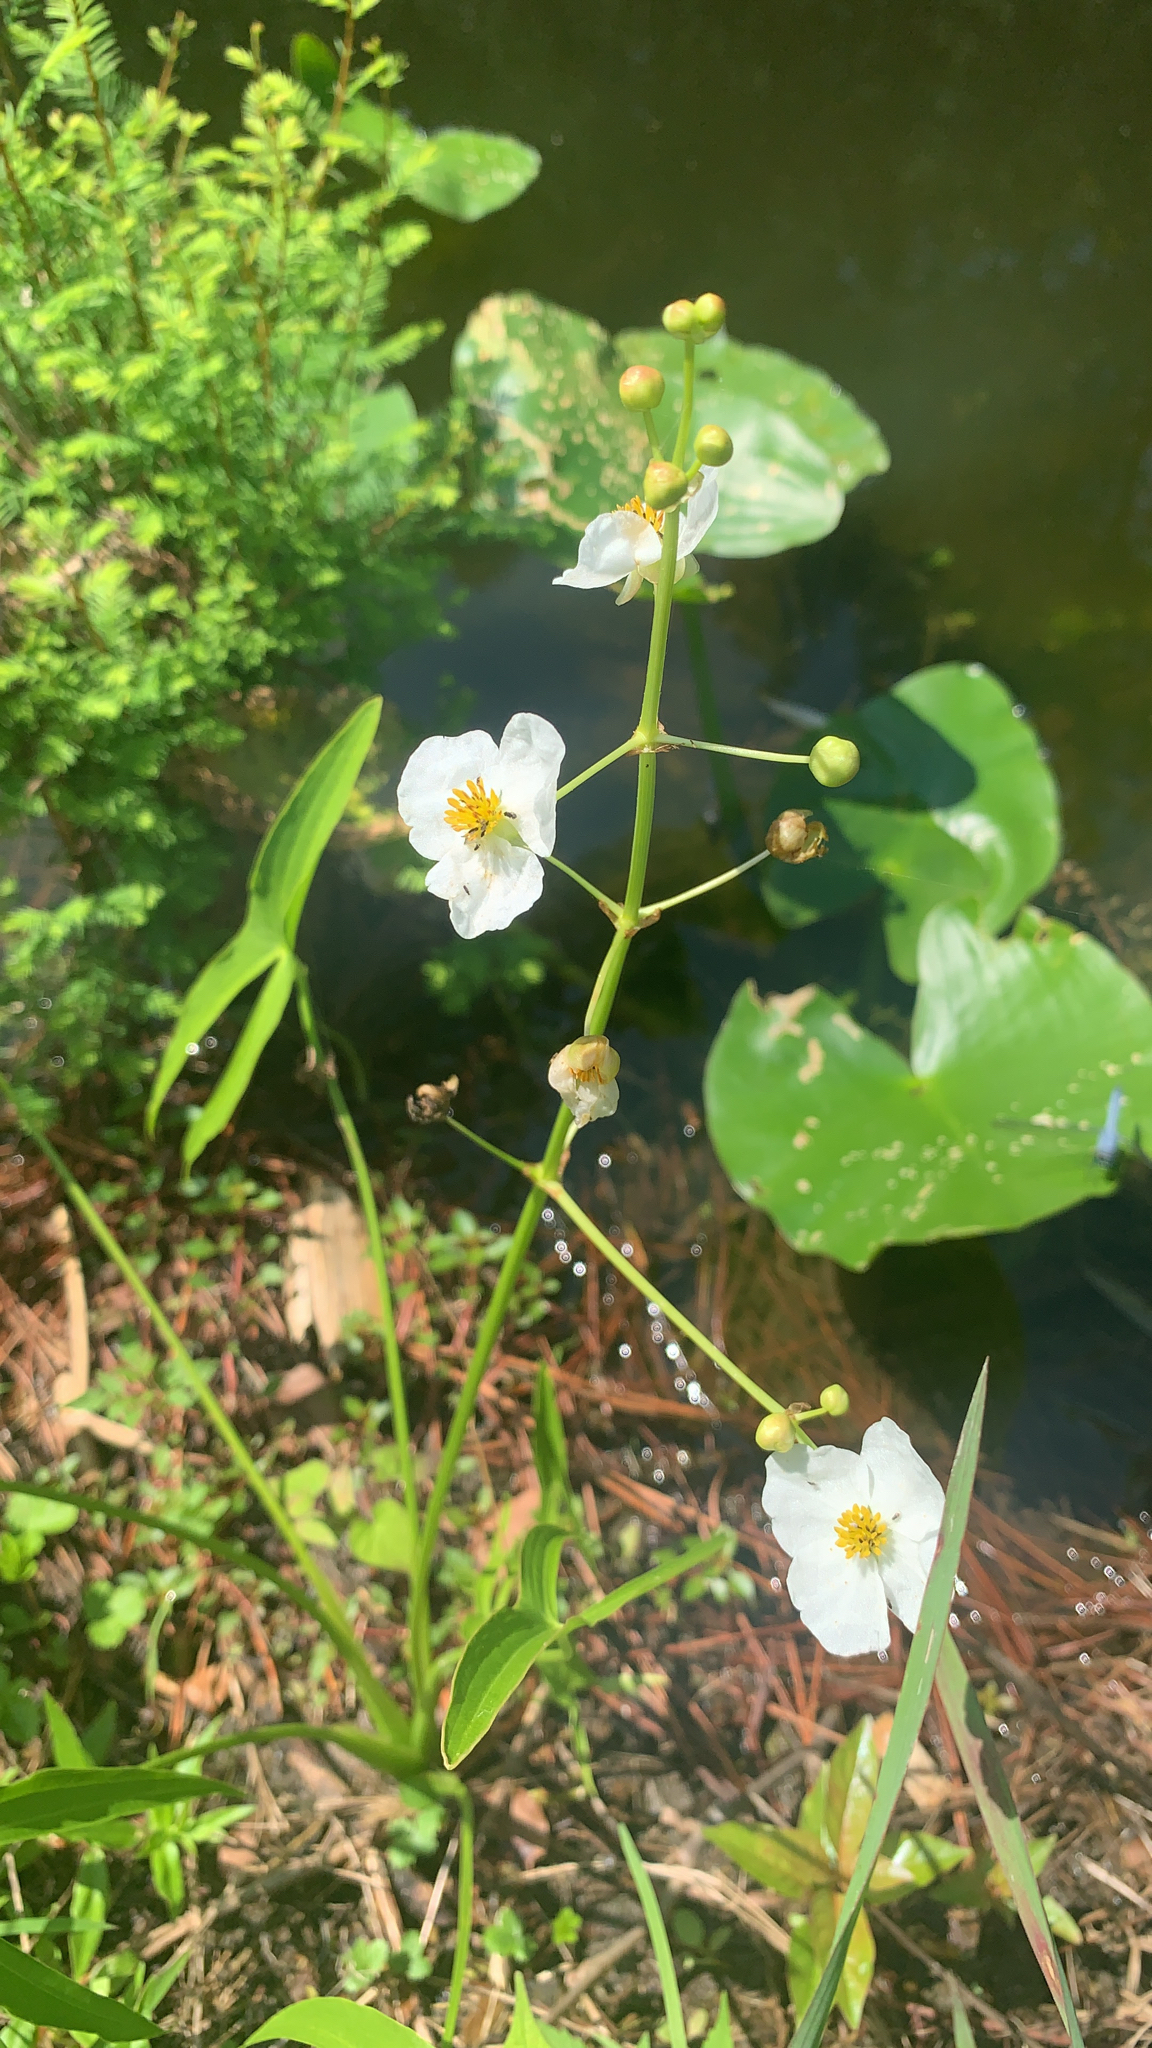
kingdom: Plantae
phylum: Tracheophyta
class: Liliopsida
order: Alismatales
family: Alismataceae
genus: Sagittaria
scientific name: Sagittaria latifolia
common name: Duck-potato
